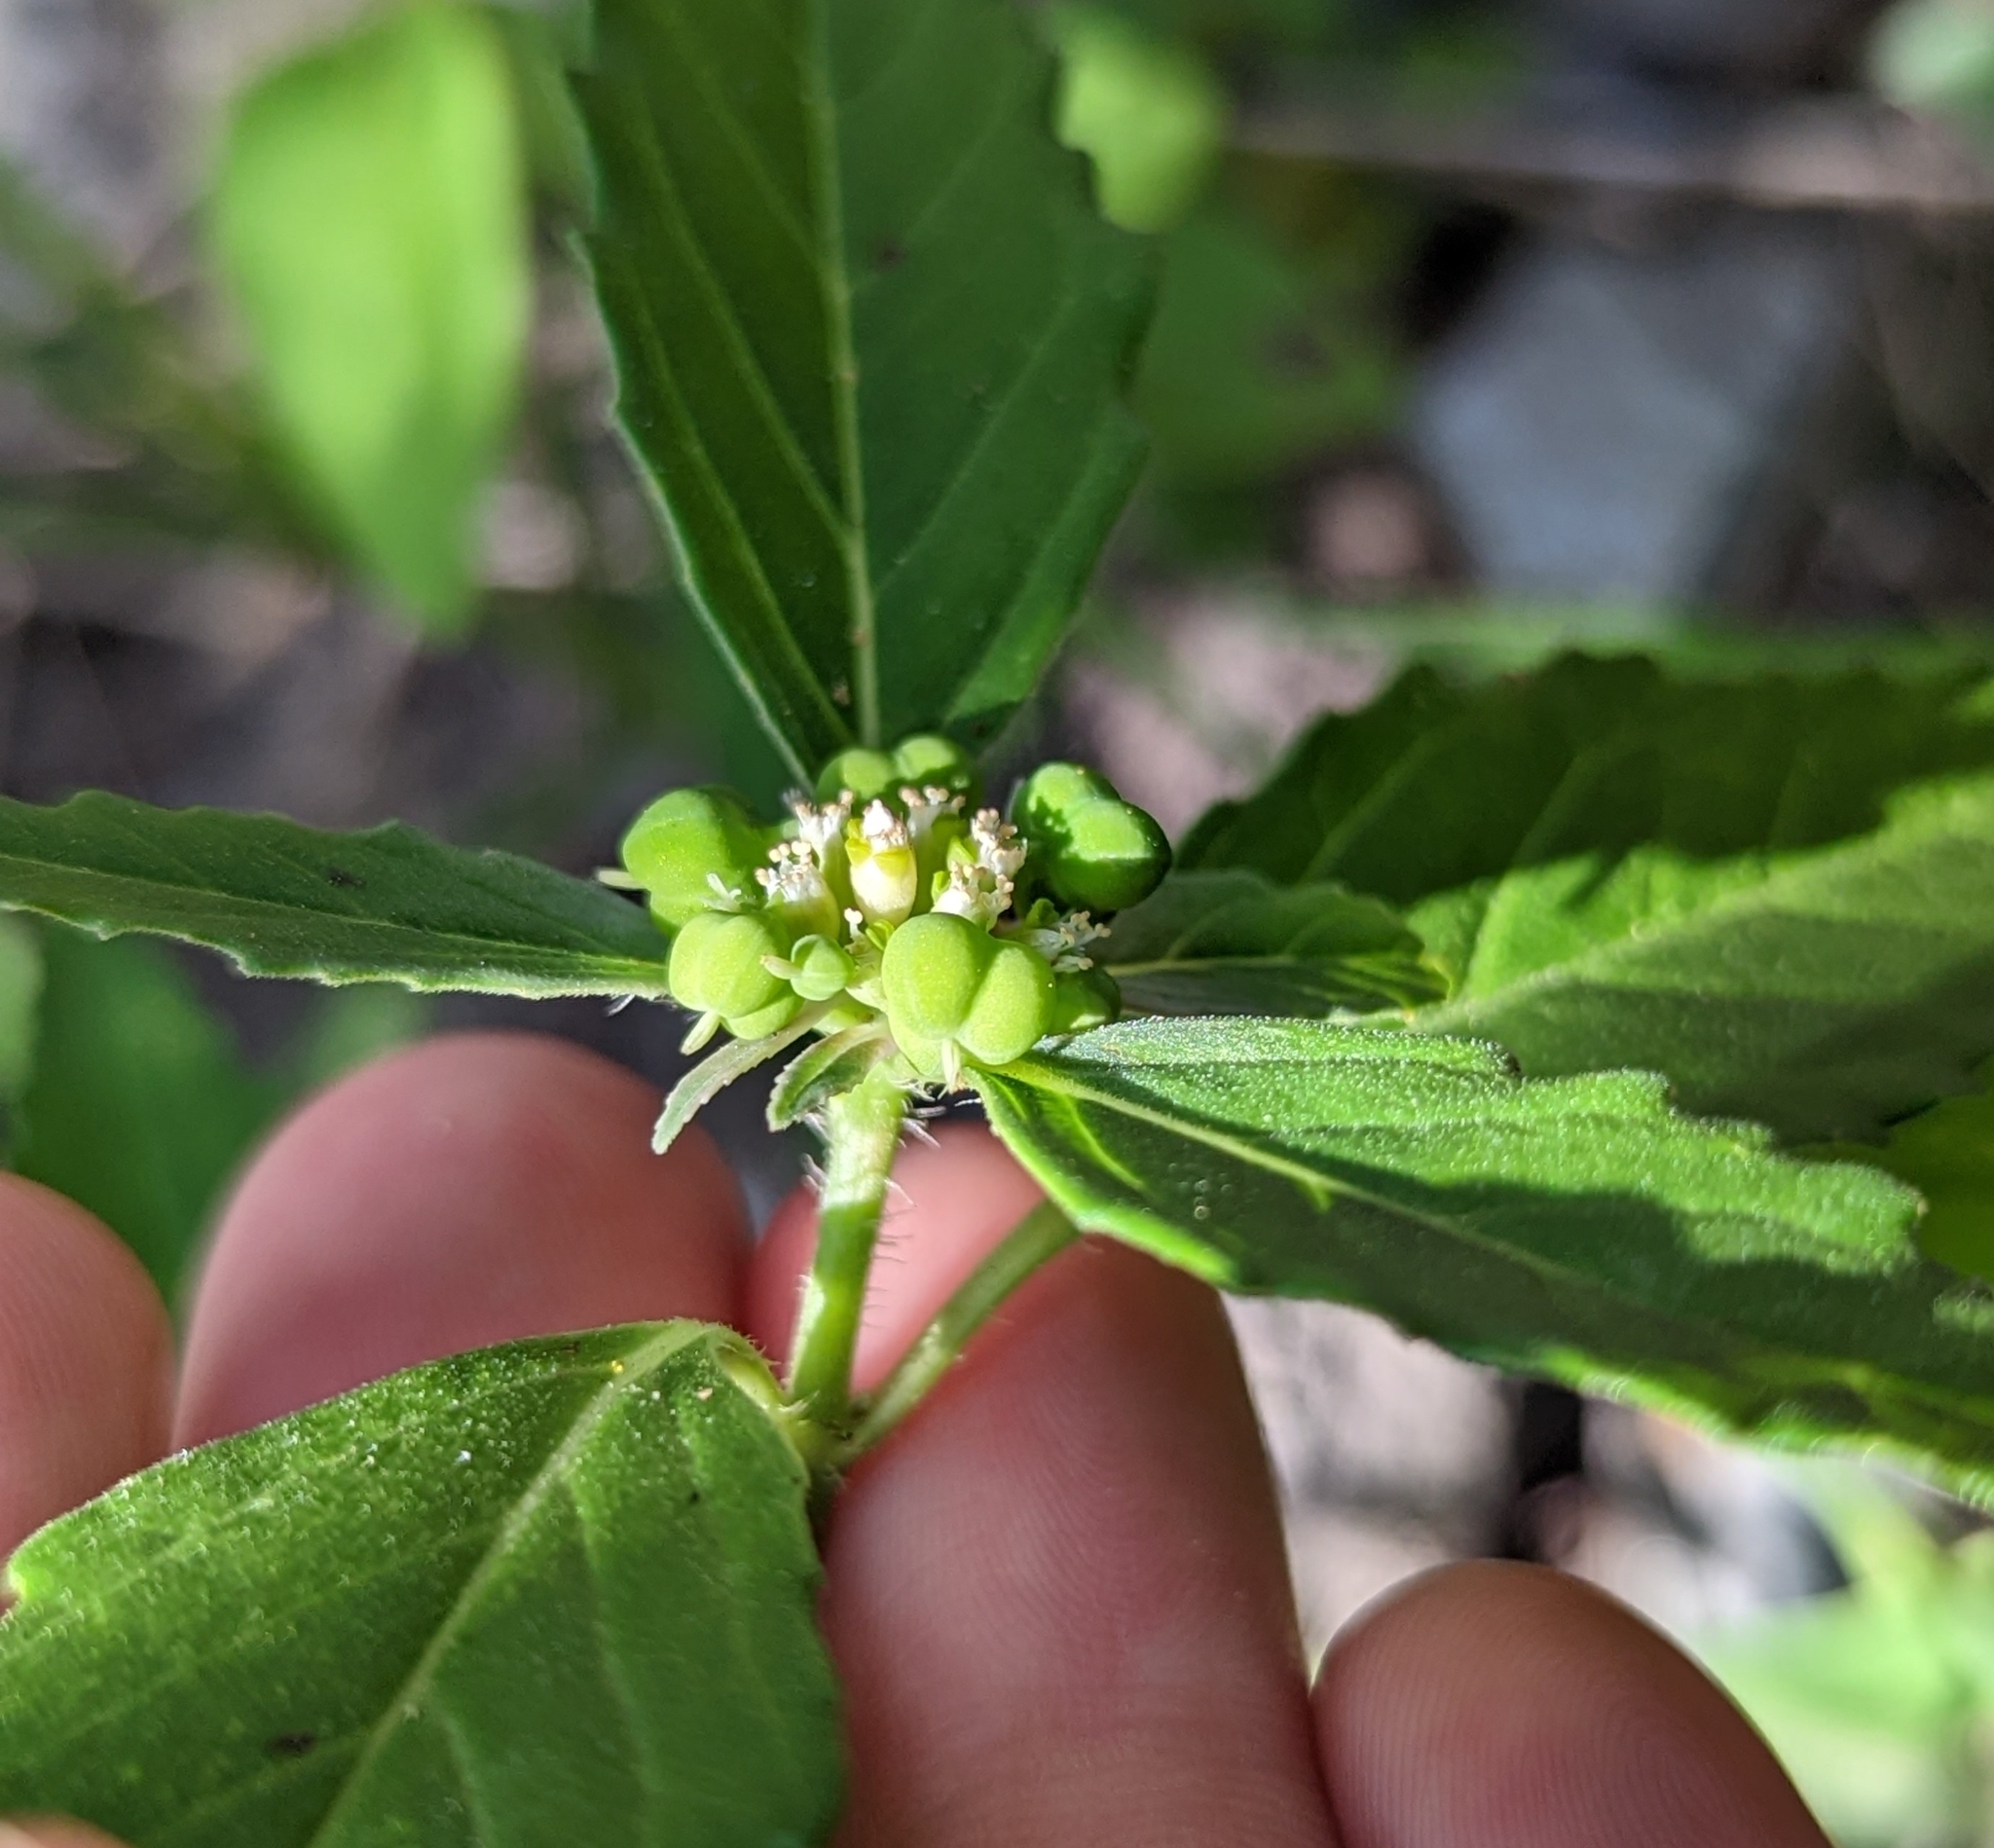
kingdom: Plantae
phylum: Tracheophyta
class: Magnoliopsida
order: Malpighiales
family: Euphorbiaceae
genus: Euphorbia
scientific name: Euphorbia dentata
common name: Dentate spurge
